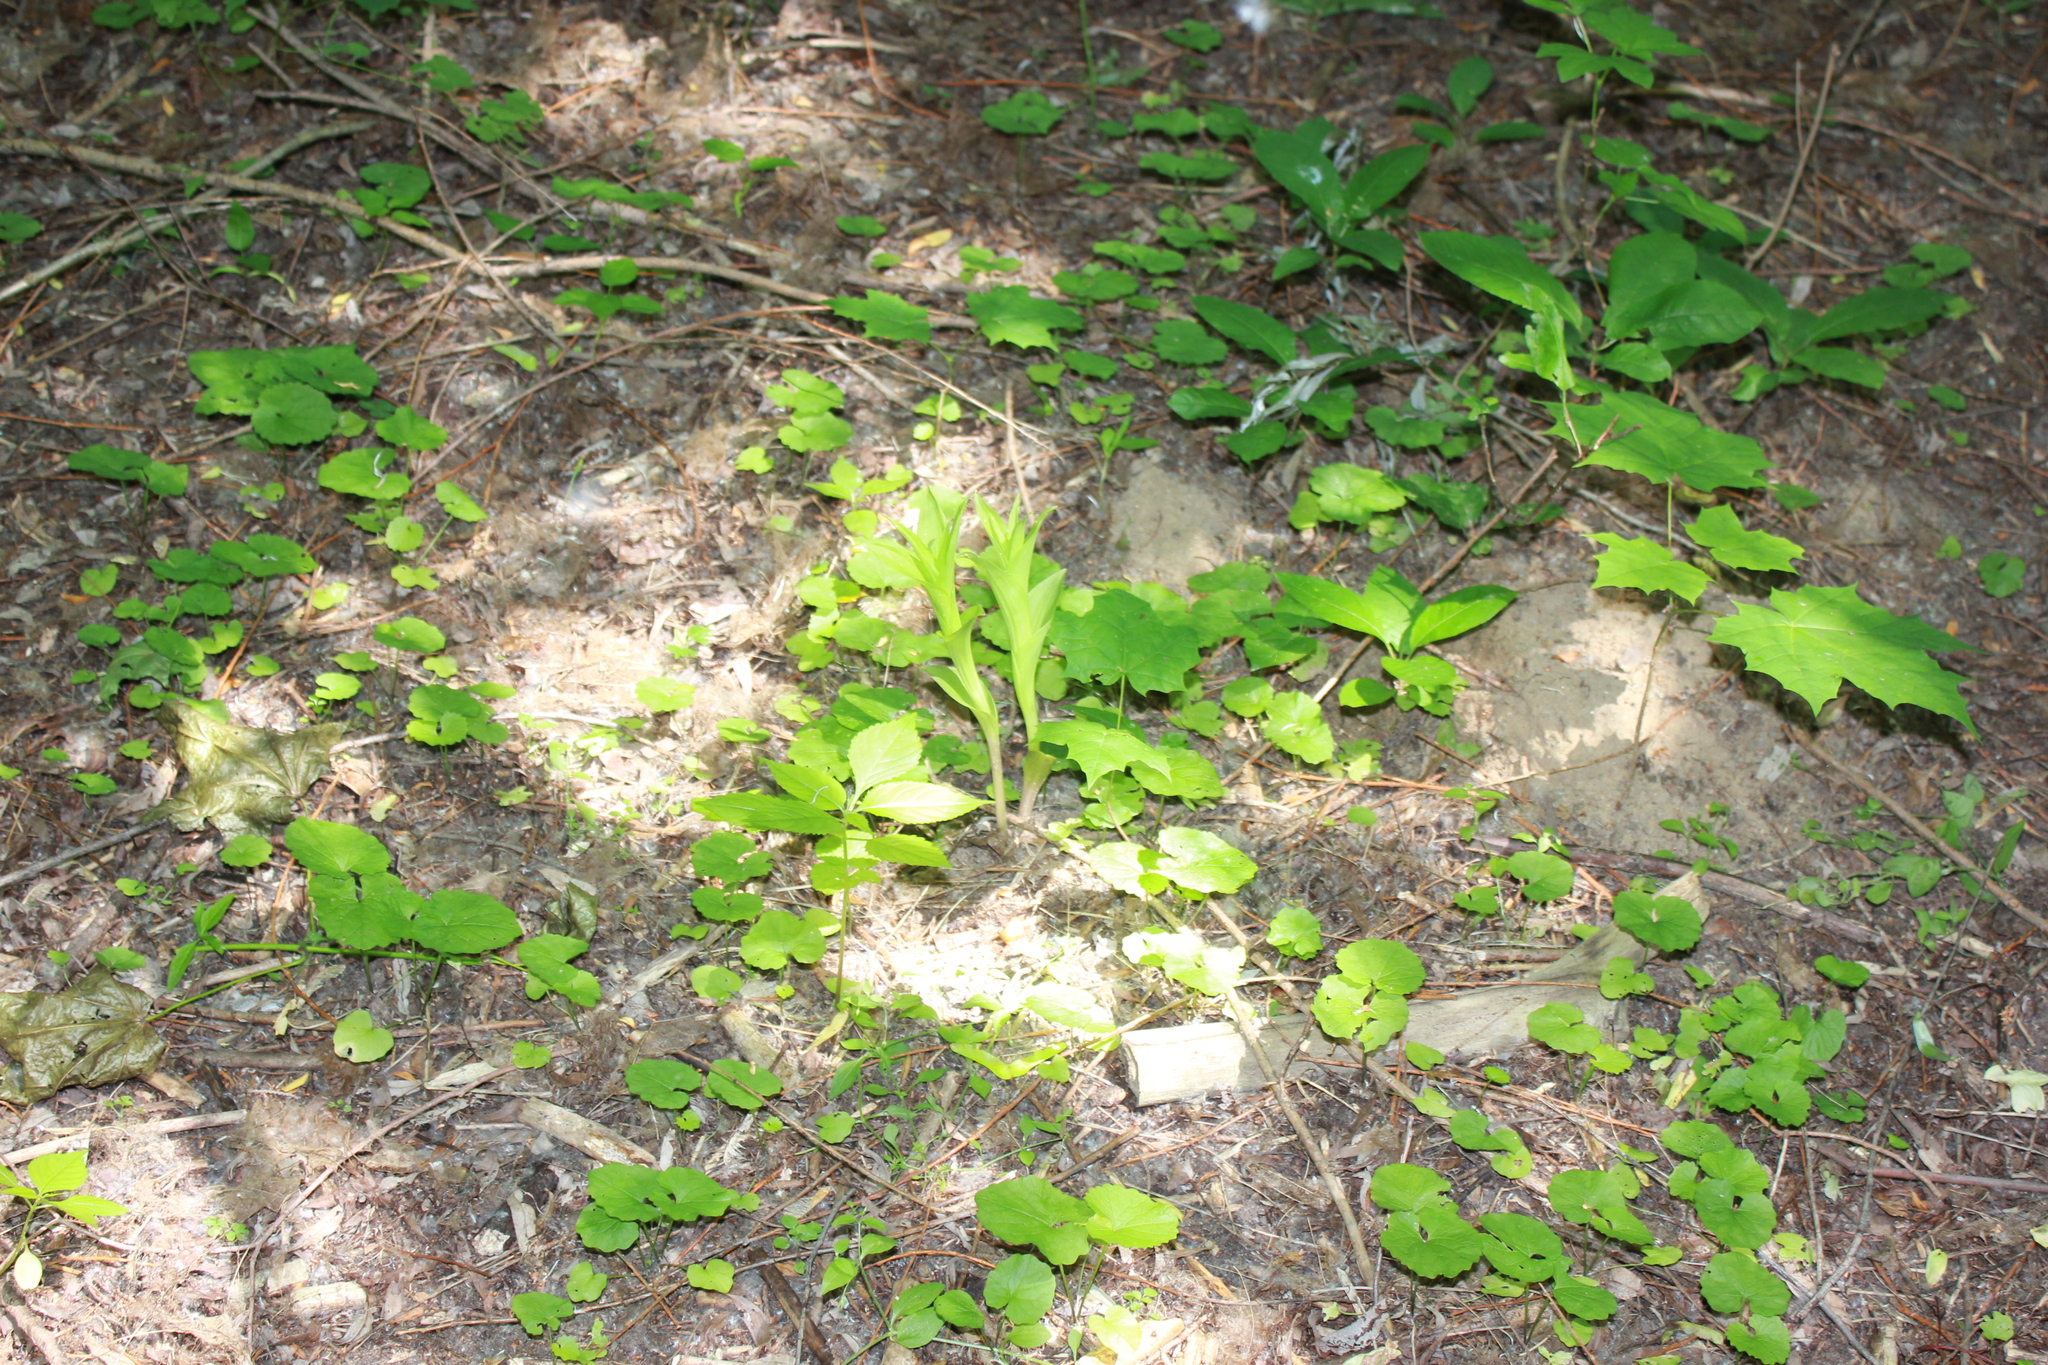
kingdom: Plantae
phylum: Tracheophyta
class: Liliopsida
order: Asparagales
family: Orchidaceae
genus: Epipactis
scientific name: Epipactis helleborine
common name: Broad-leaved helleborine
